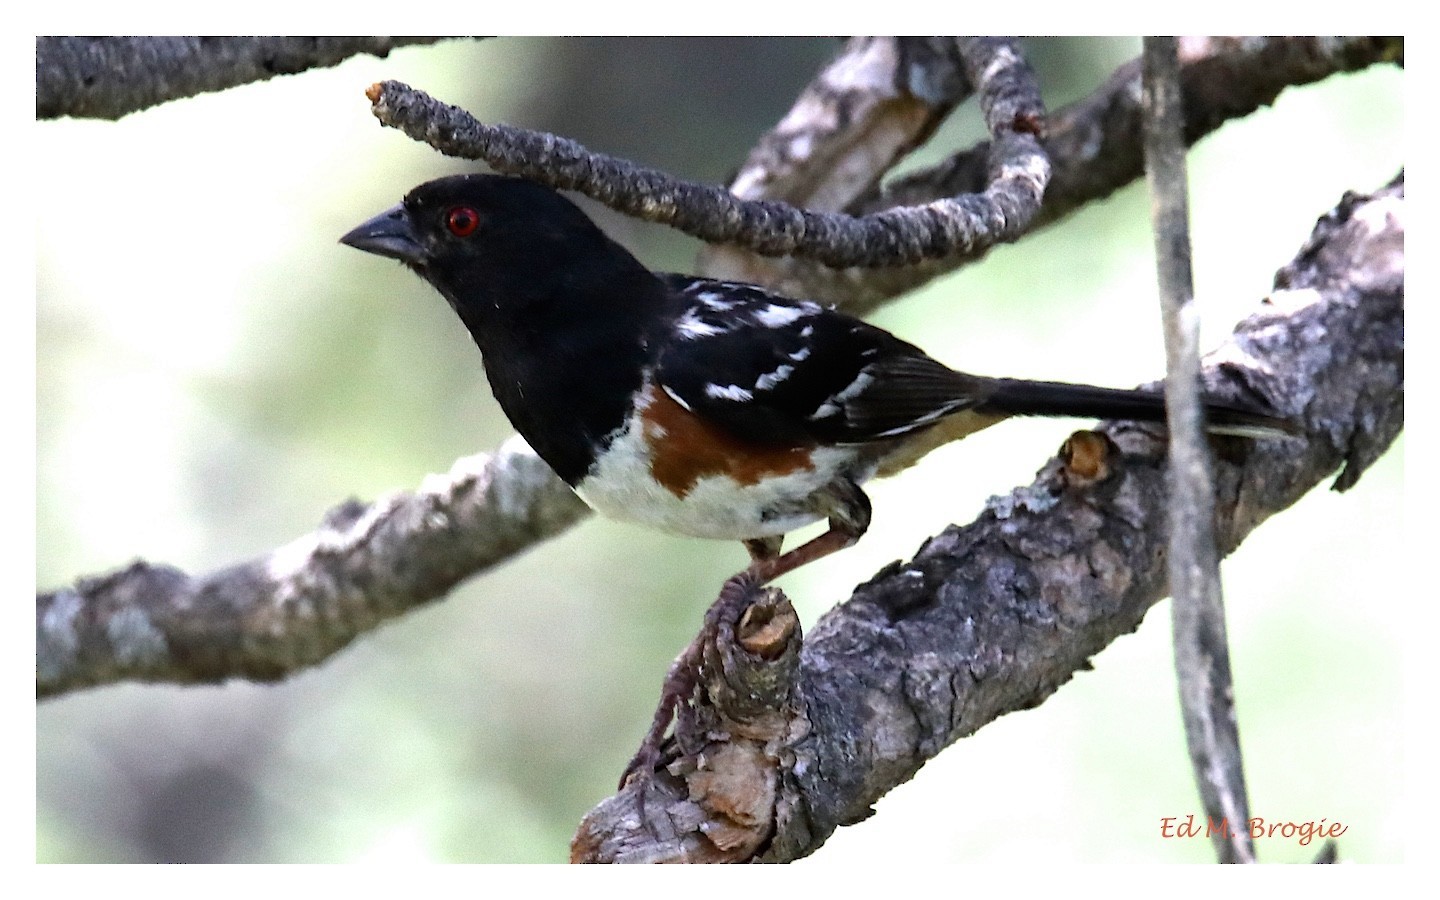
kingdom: Animalia
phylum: Chordata
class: Aves
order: Passeriformes
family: Passerellidae
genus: Pipilo
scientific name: Pipilo maculatus
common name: Spotted towhee
